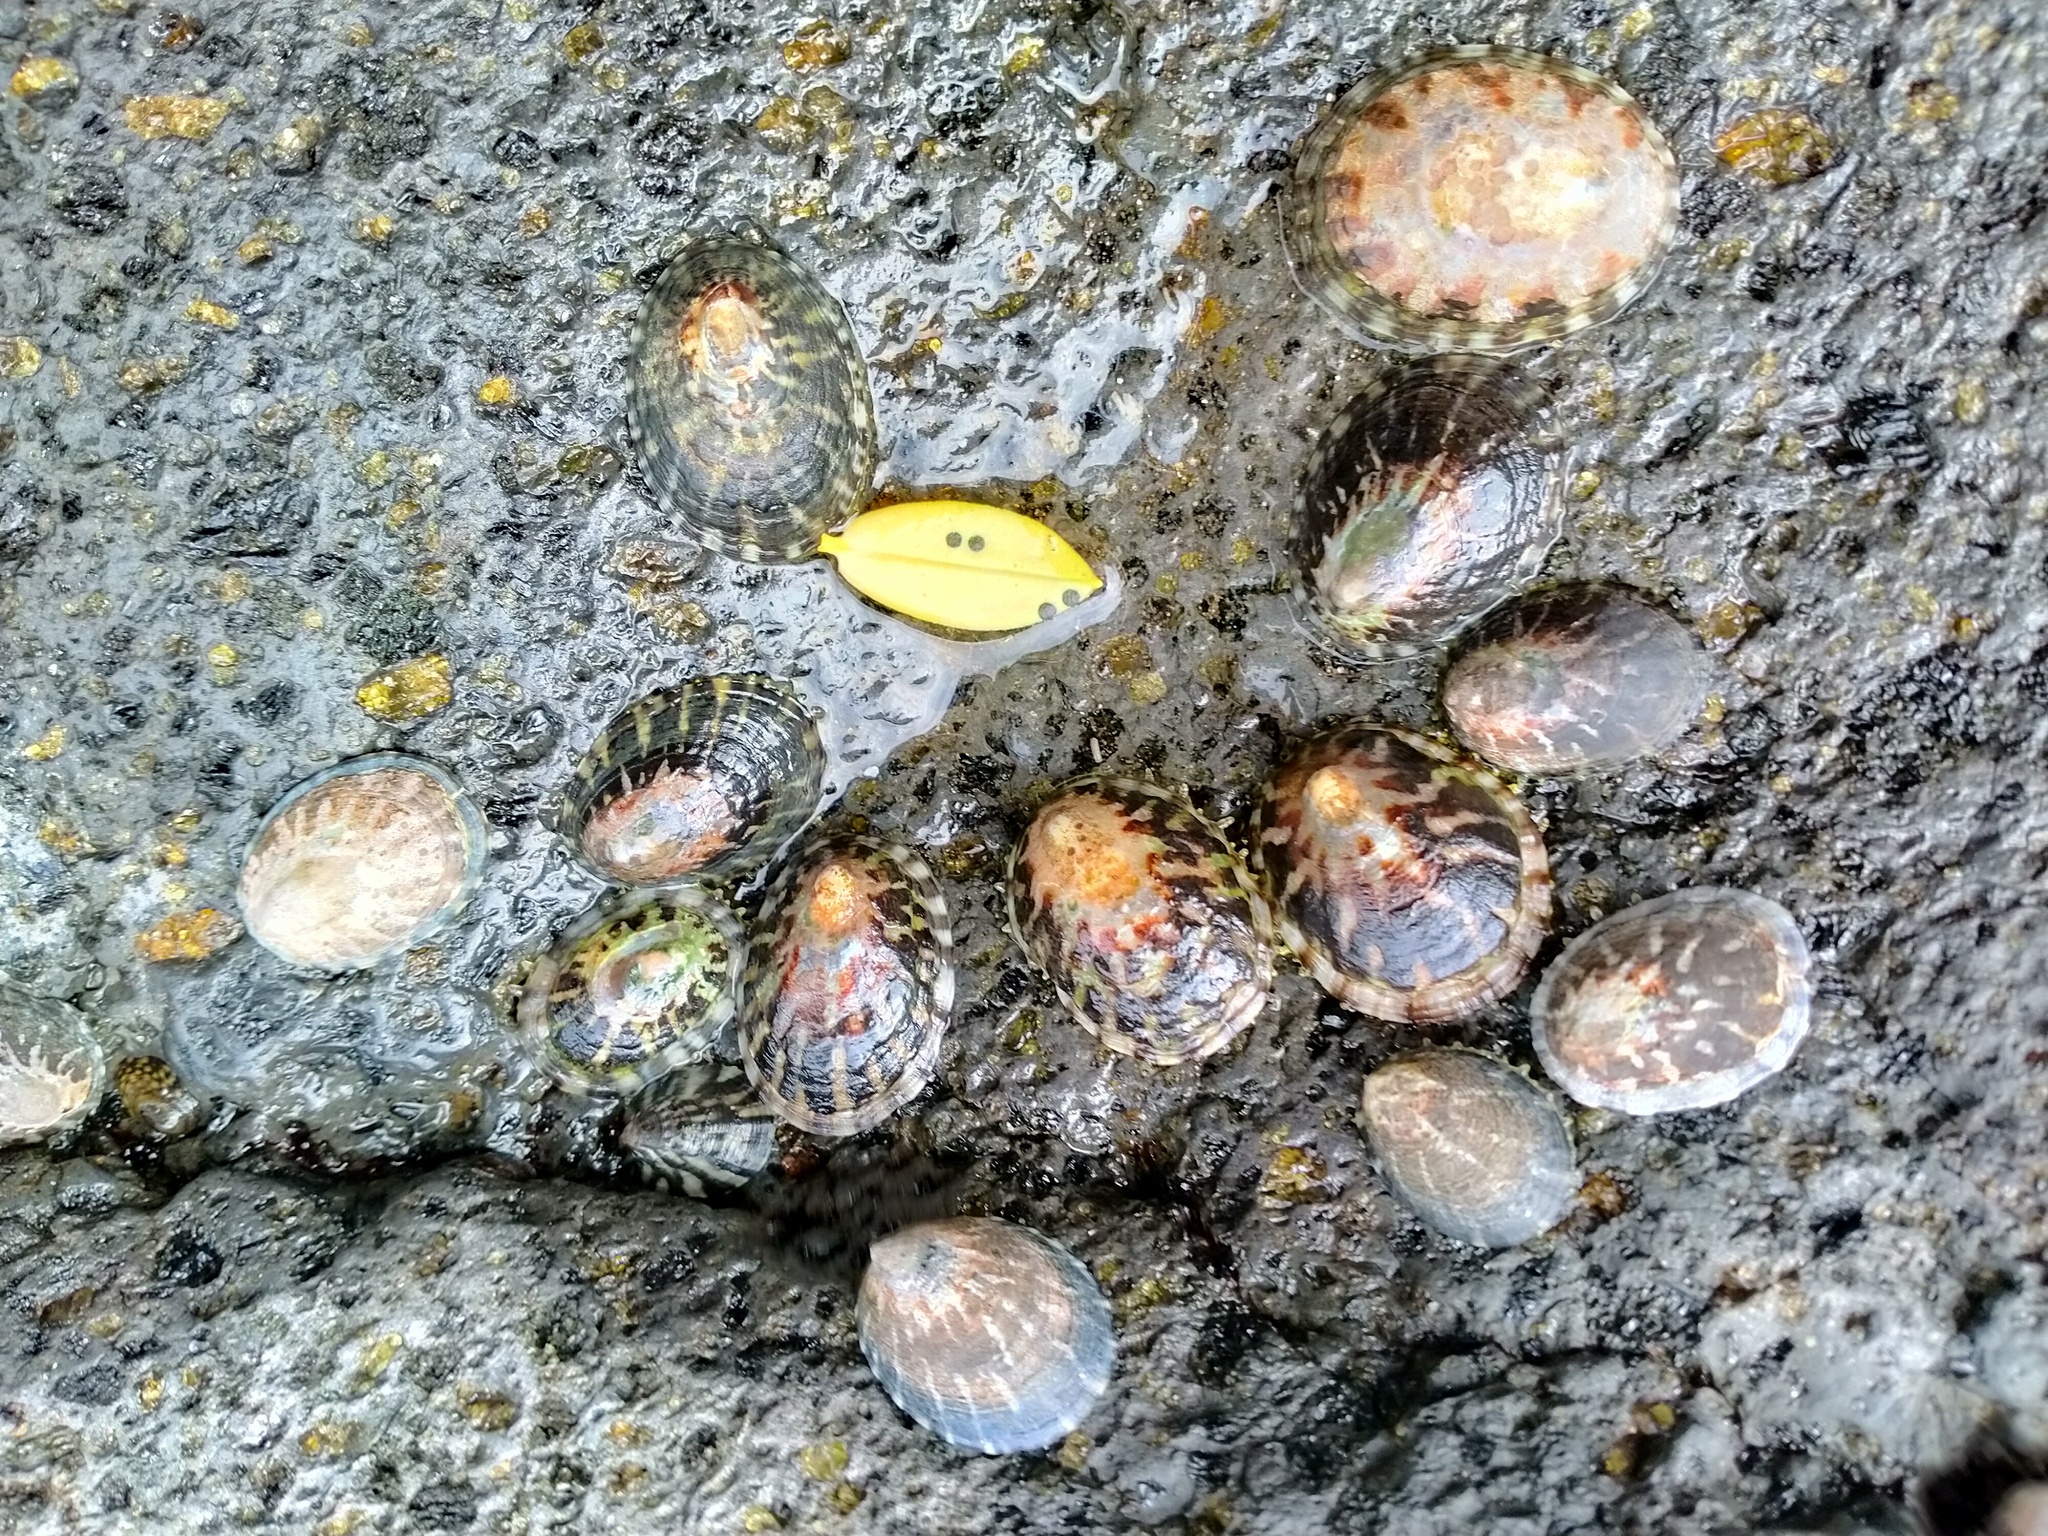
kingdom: Animalia
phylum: Mollusca
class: Gastropoda
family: Nacellidae
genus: Cellana
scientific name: Cellana strigilis
